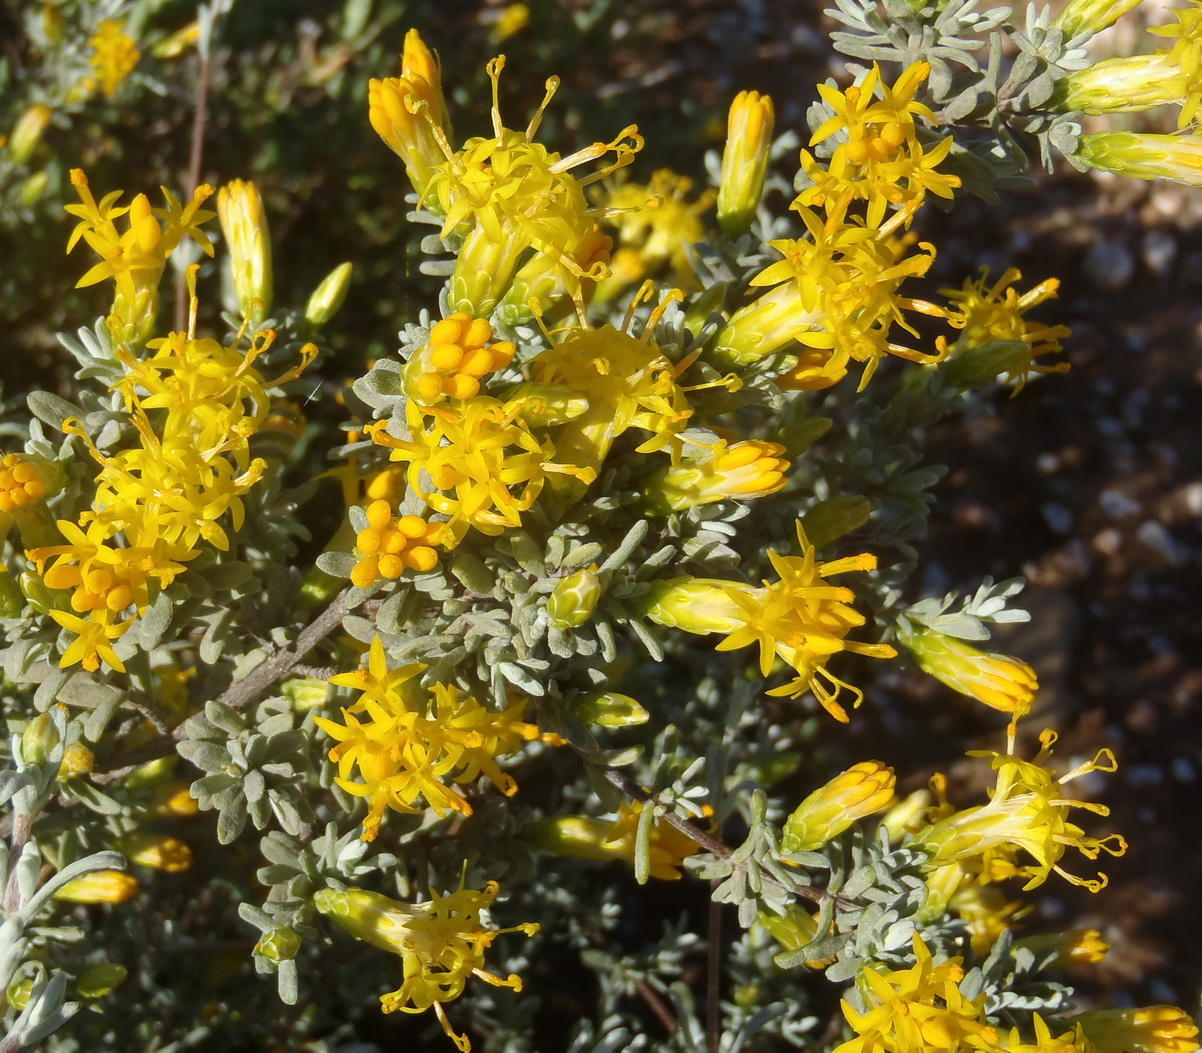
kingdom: Plantae
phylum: Tracheophyta
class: Magnoliopsida
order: Asterales
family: Asteraceae
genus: Pteronia
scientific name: Pteronia incana
